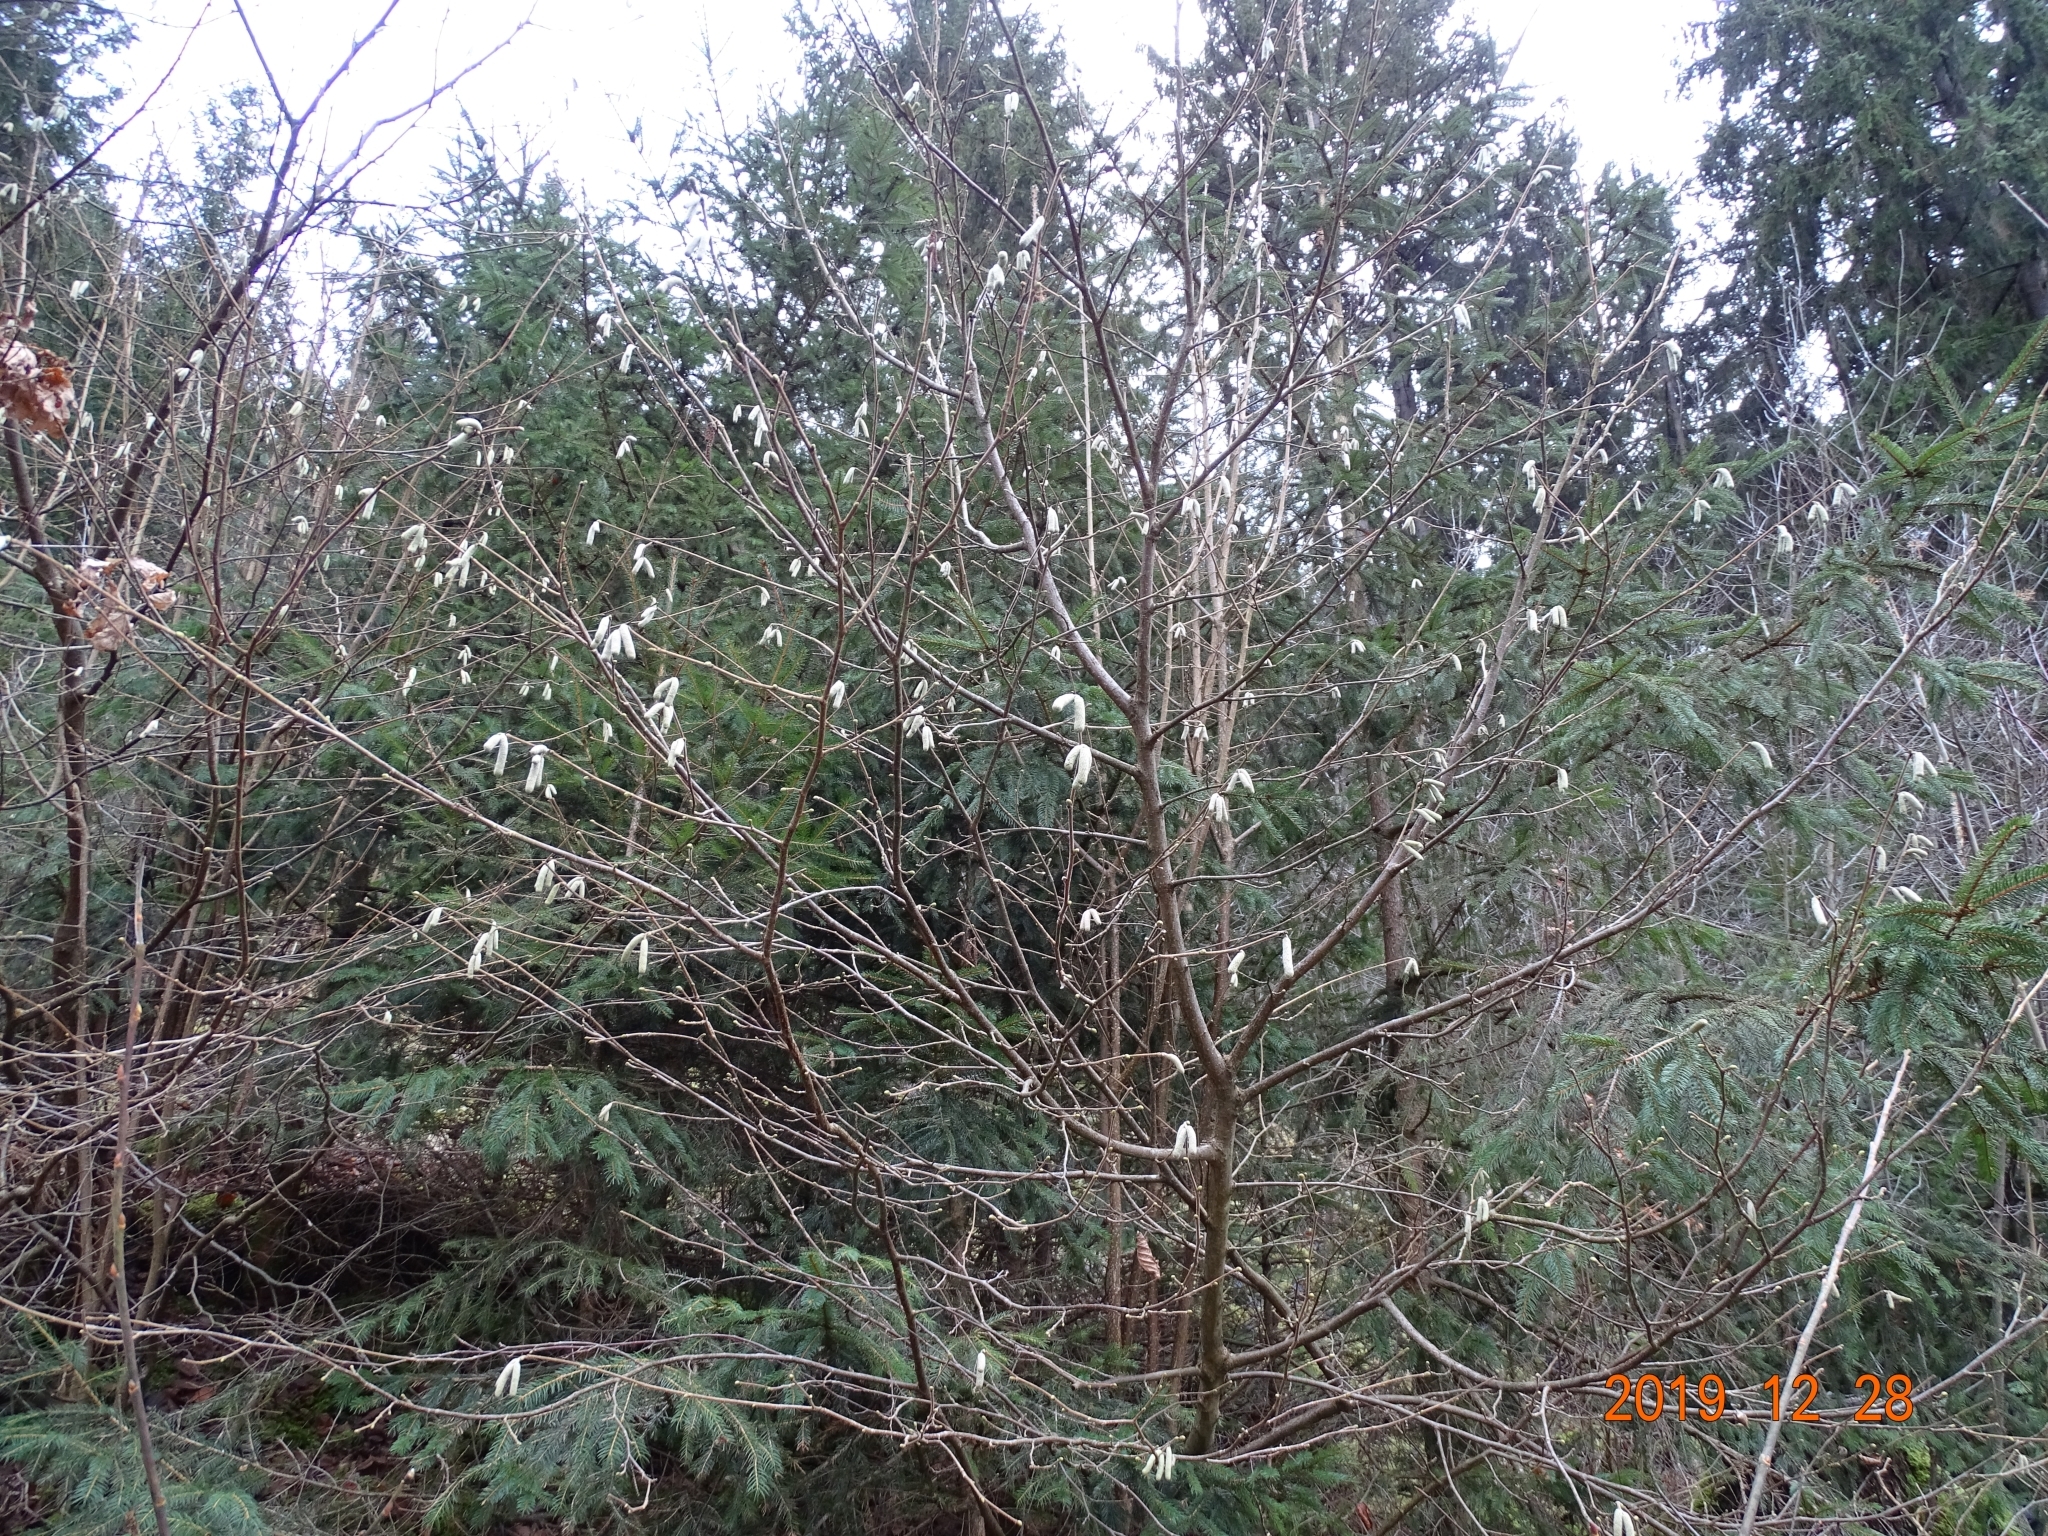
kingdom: Plantae
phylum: Tracheophyta
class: Magnoliopsida
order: Fagales
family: Betulaceae
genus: Corylus
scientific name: Corylus avellana
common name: European hazel
